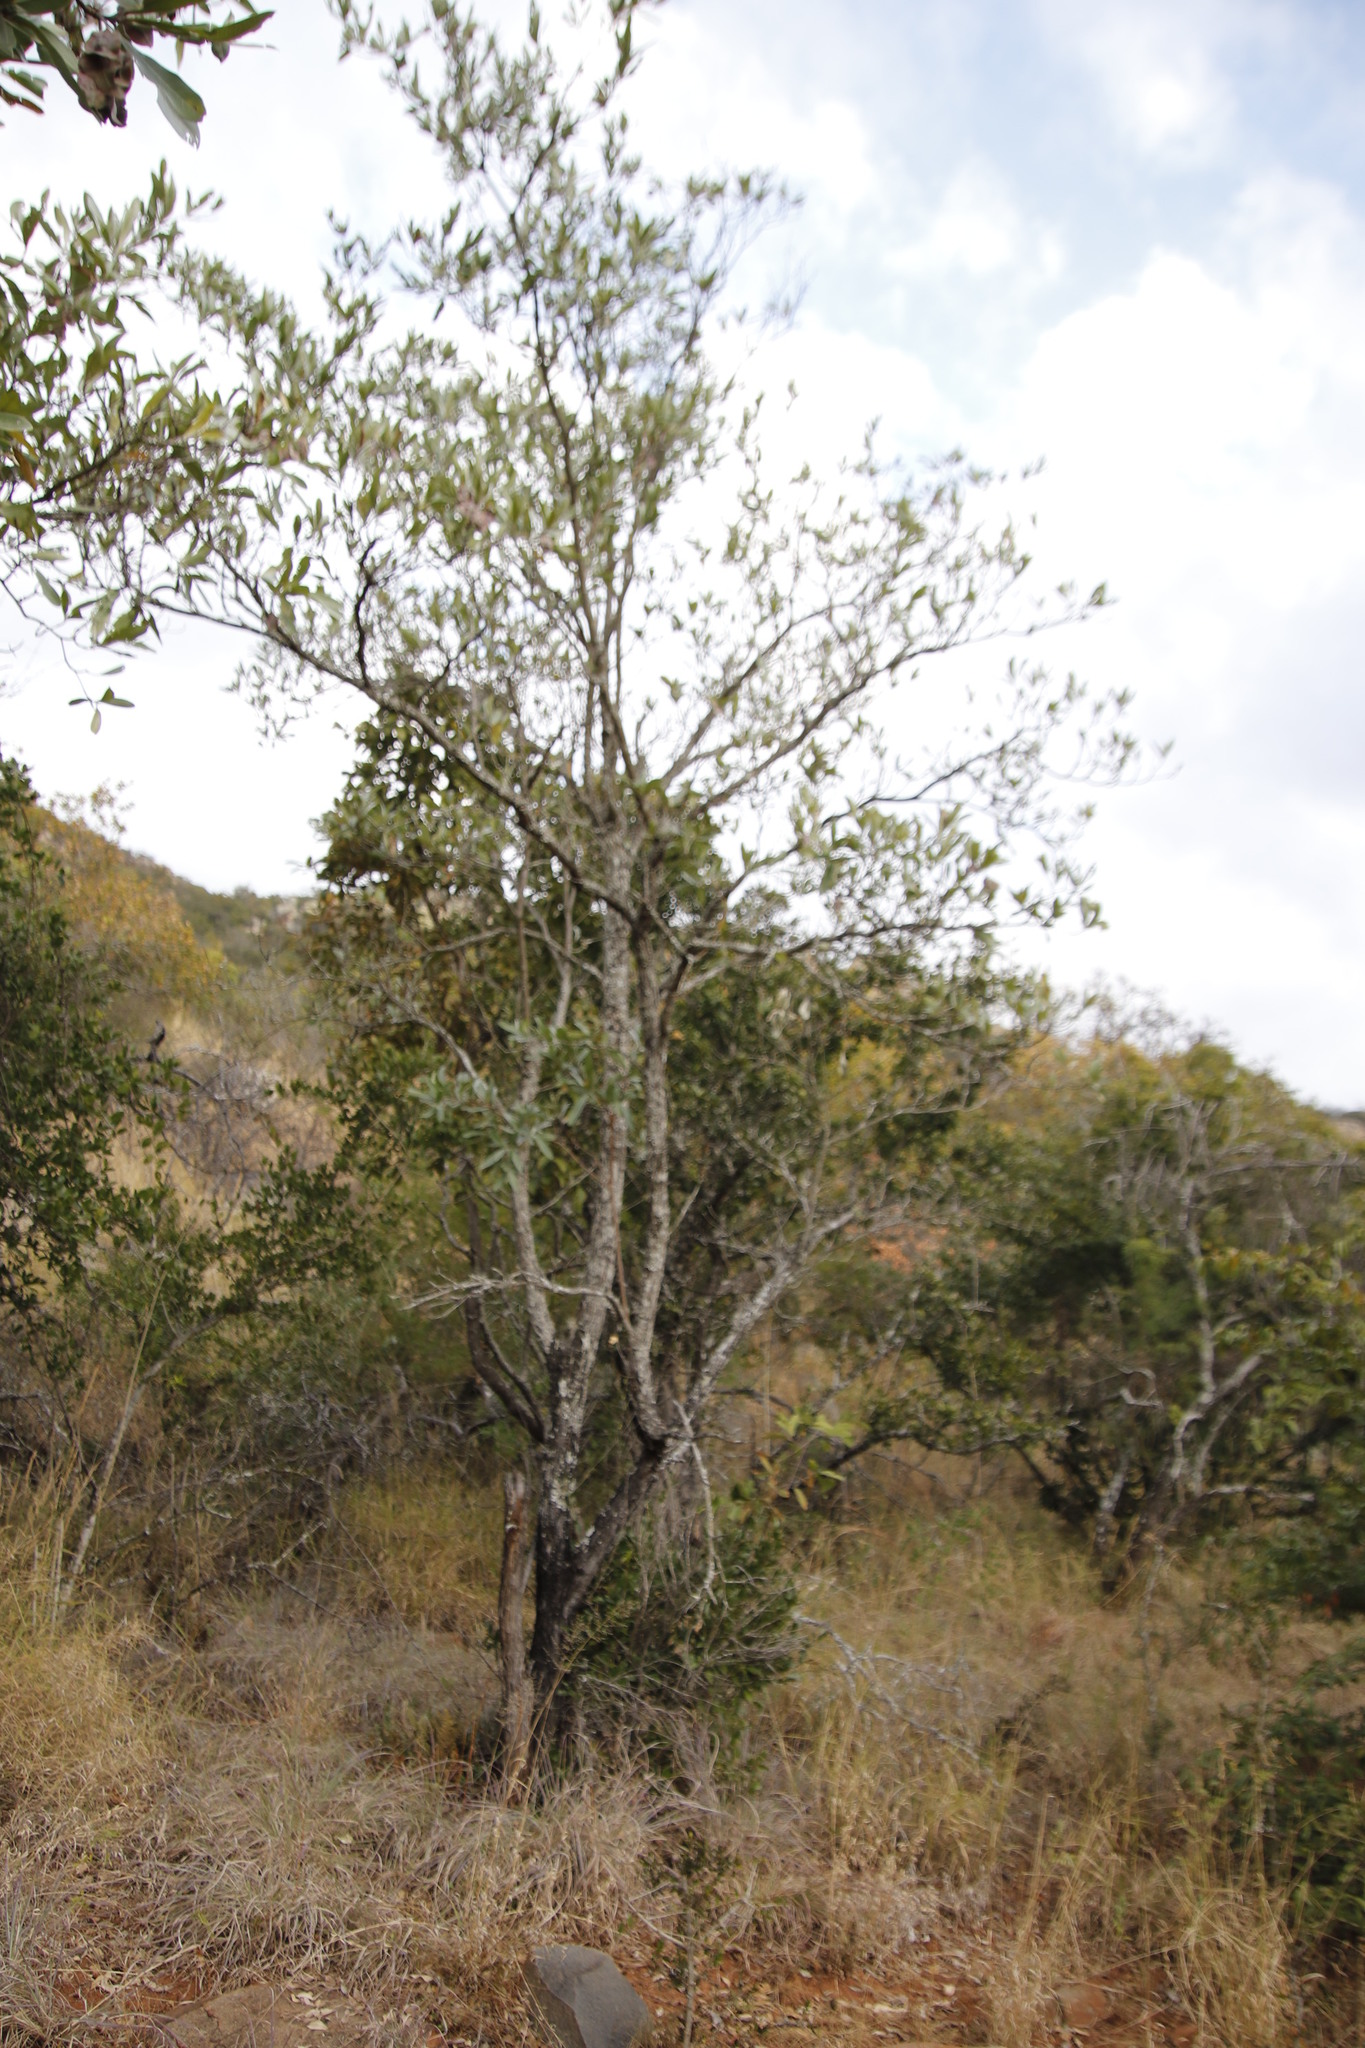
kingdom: Plantae
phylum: Tracheophyta
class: Magnoliopsida
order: Myrtales
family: Combretaceae
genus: Terminalia
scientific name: Terminalia sericea
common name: Clusterleaf
